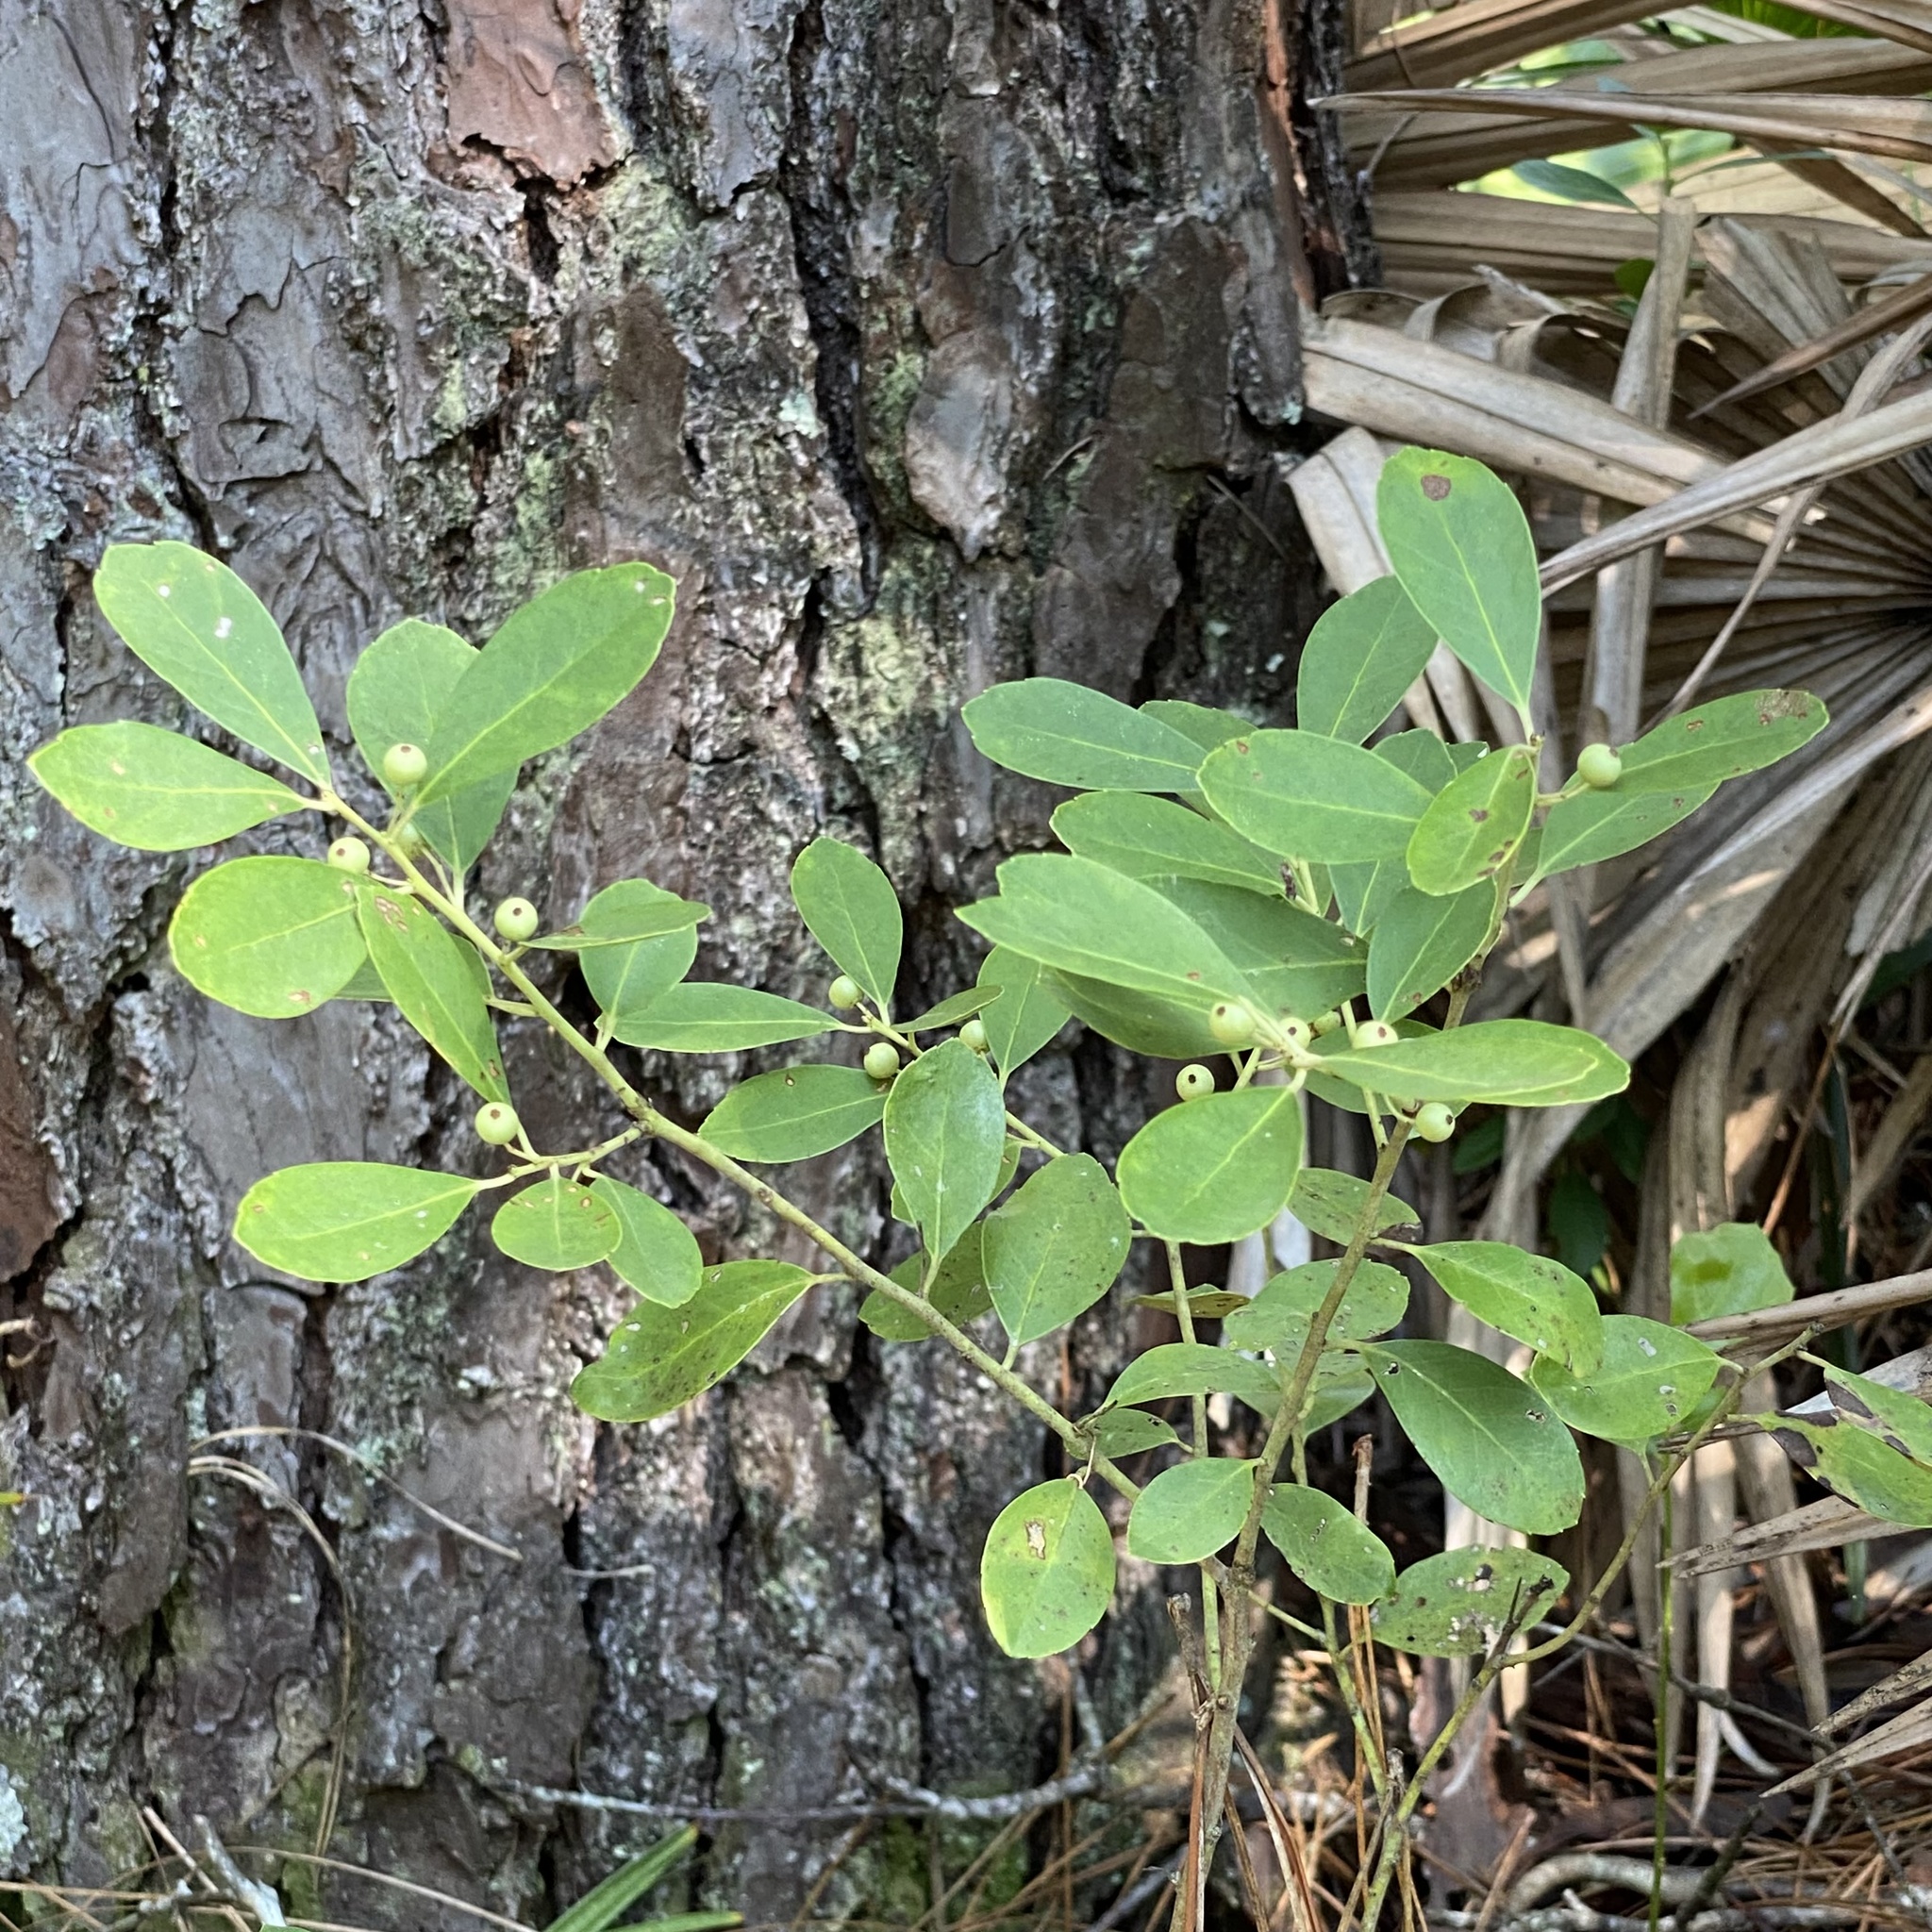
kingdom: Plantae
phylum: Tracheophyta
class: Magnoliopsida
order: Aquifoliales
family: Aquifoliaceae
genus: Ilex
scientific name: Ilex glabra
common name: Bitter gallberry
